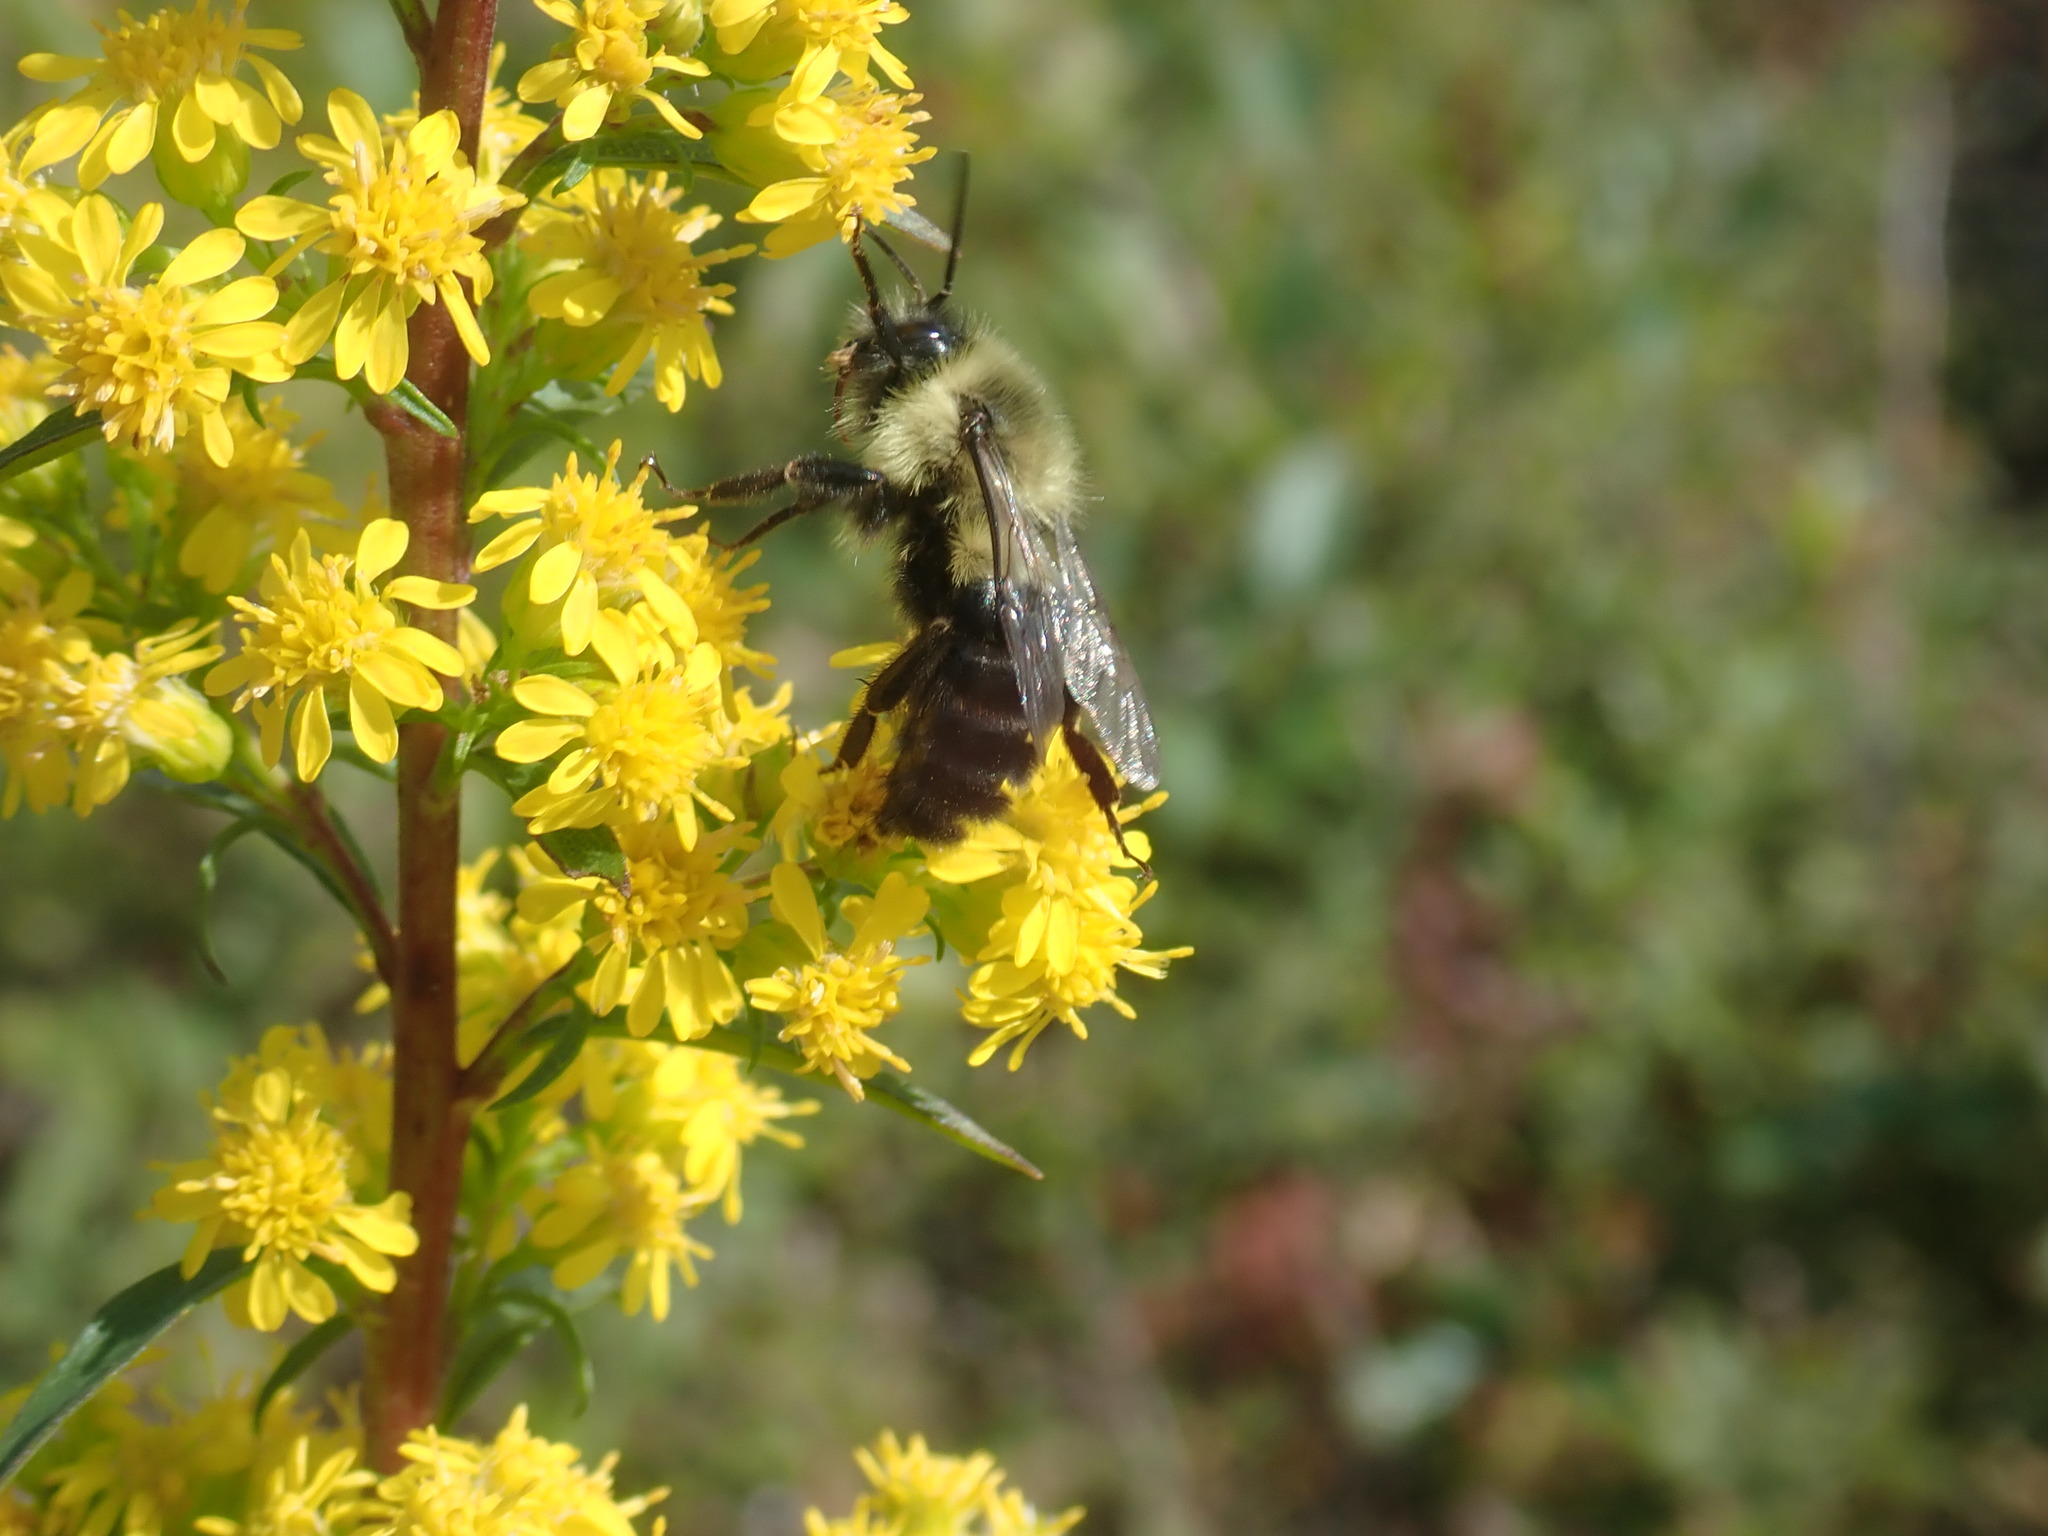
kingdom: Animalia
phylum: Arthropoda
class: Insecta
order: Hymenoptera
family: Apidae
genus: Bombus
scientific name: Bombus impatiens
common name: Common eastern bumble bee
